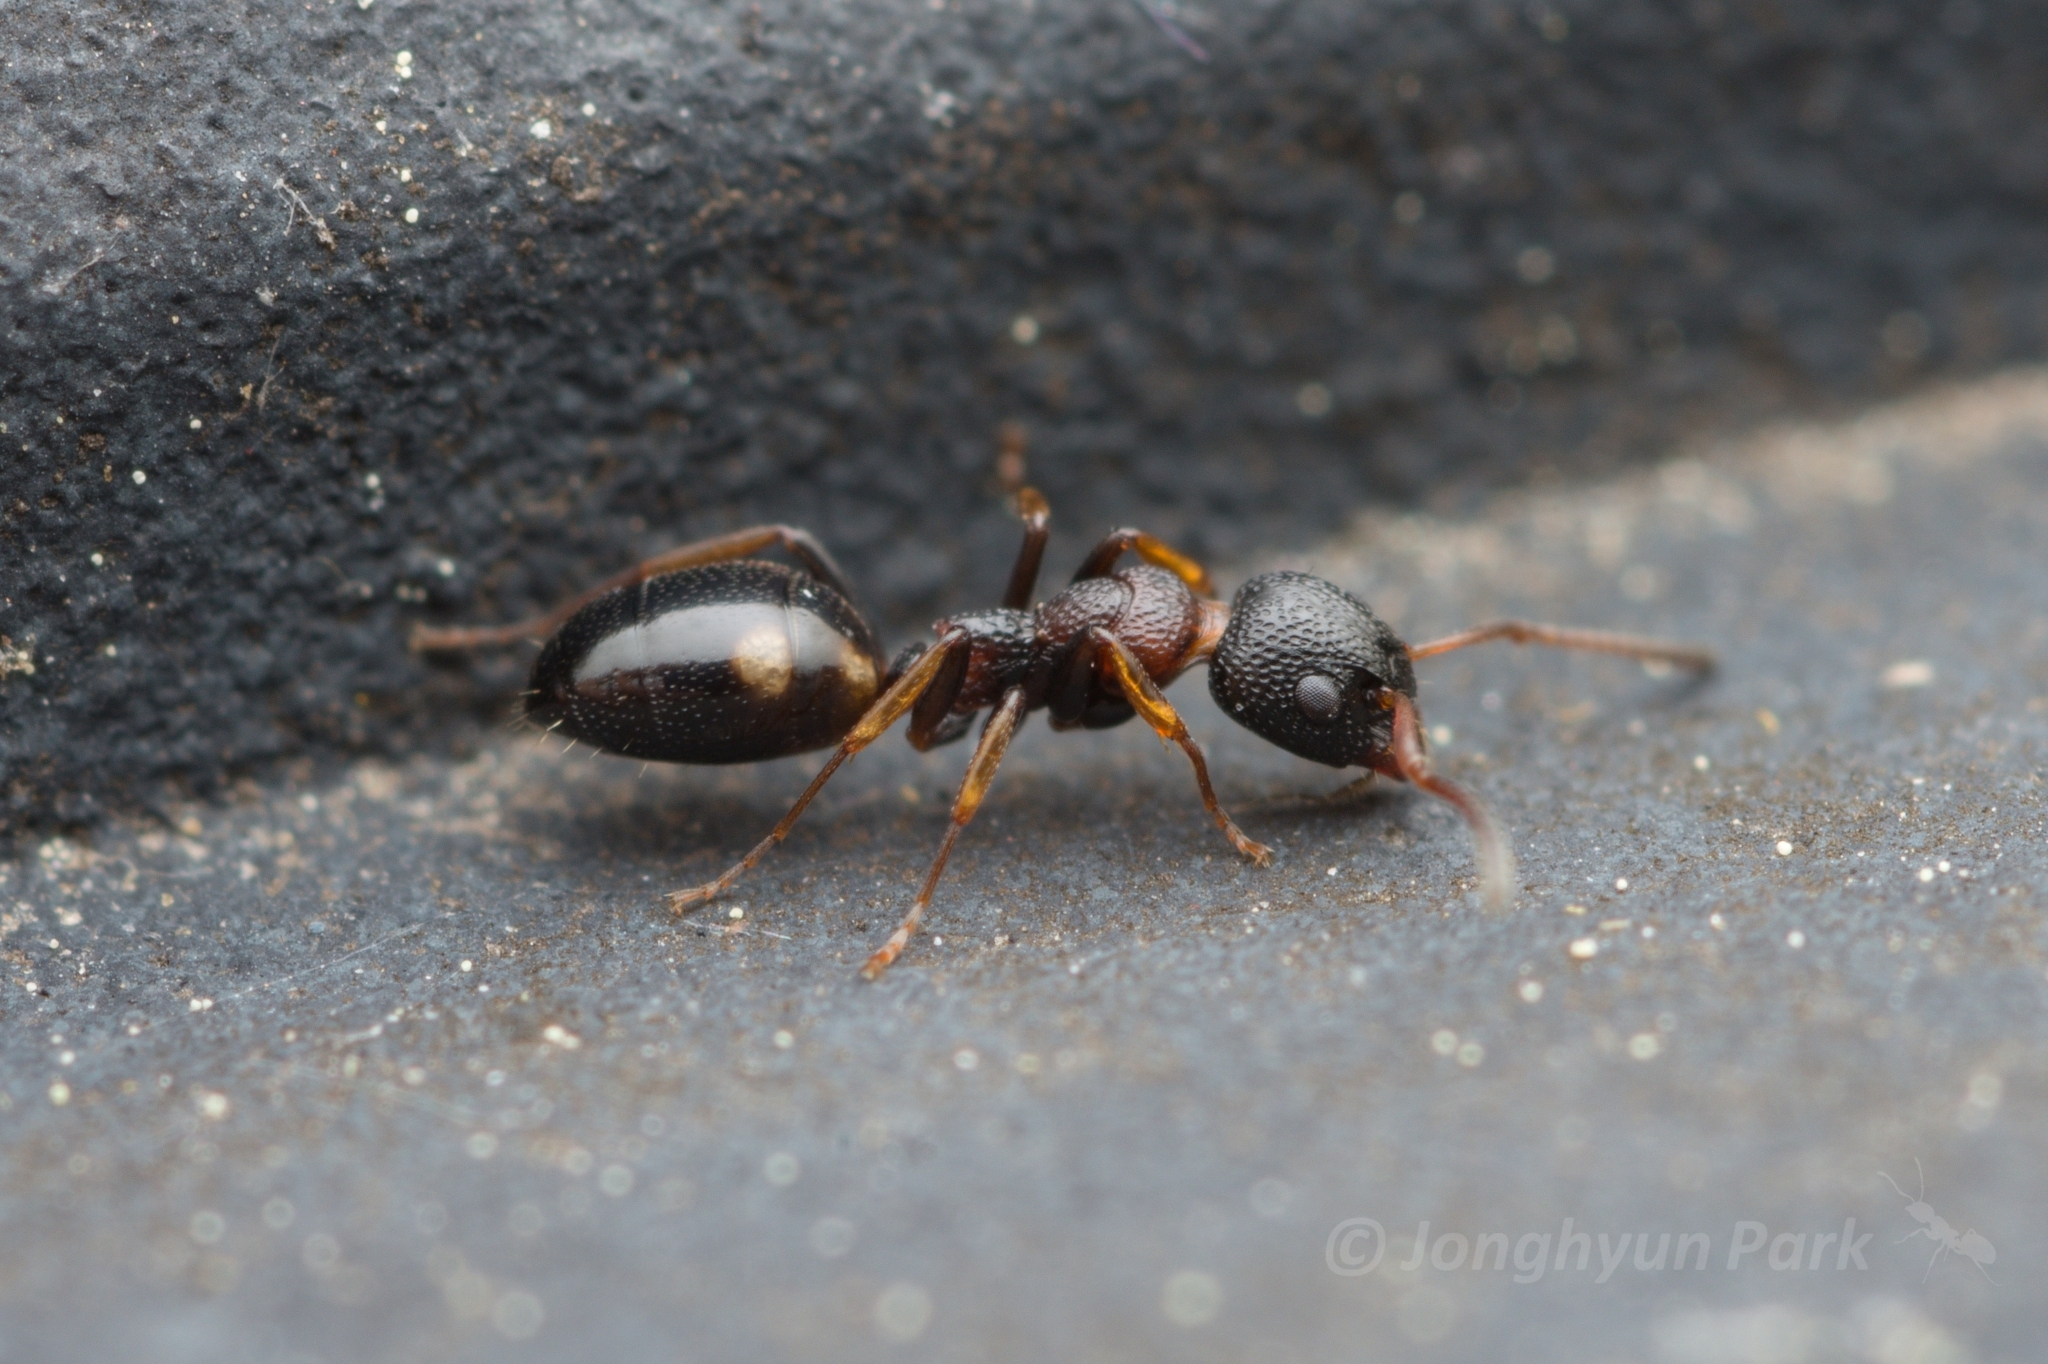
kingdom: Animalia
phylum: Arthropoda
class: Insecta
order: Hymenoptera
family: Formicidae
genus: Dolichoderus
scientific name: Dolichoderus sibiricus
